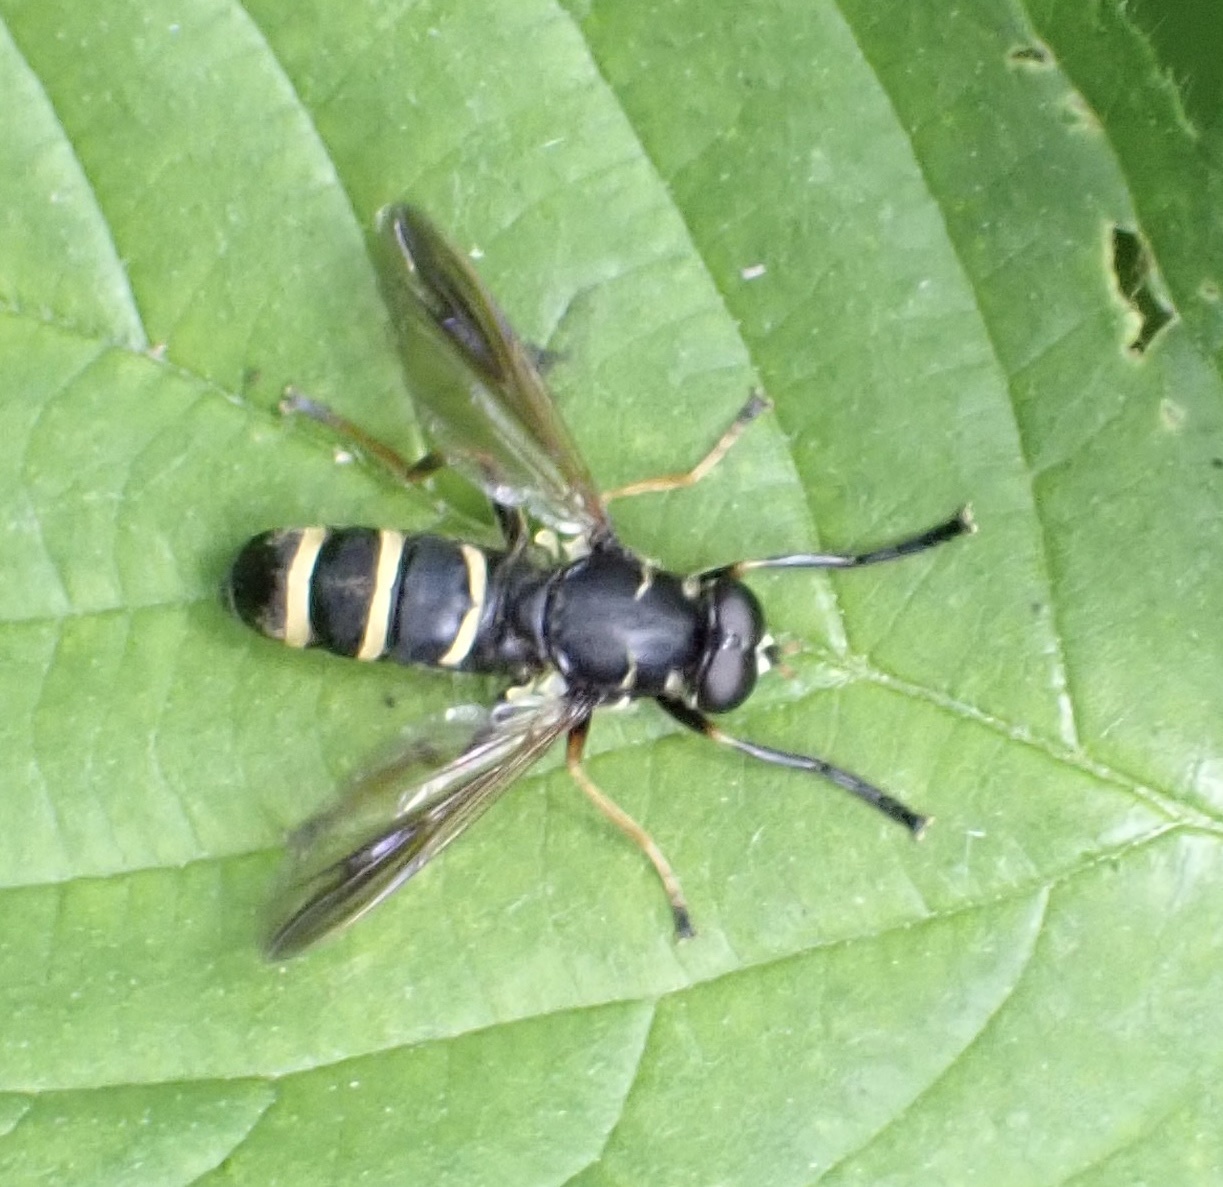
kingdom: Animalia
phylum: Arthropoda
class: Insecta
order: Diptera
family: Syrphidae
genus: Temnostoma
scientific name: Temnostoma bombylans
